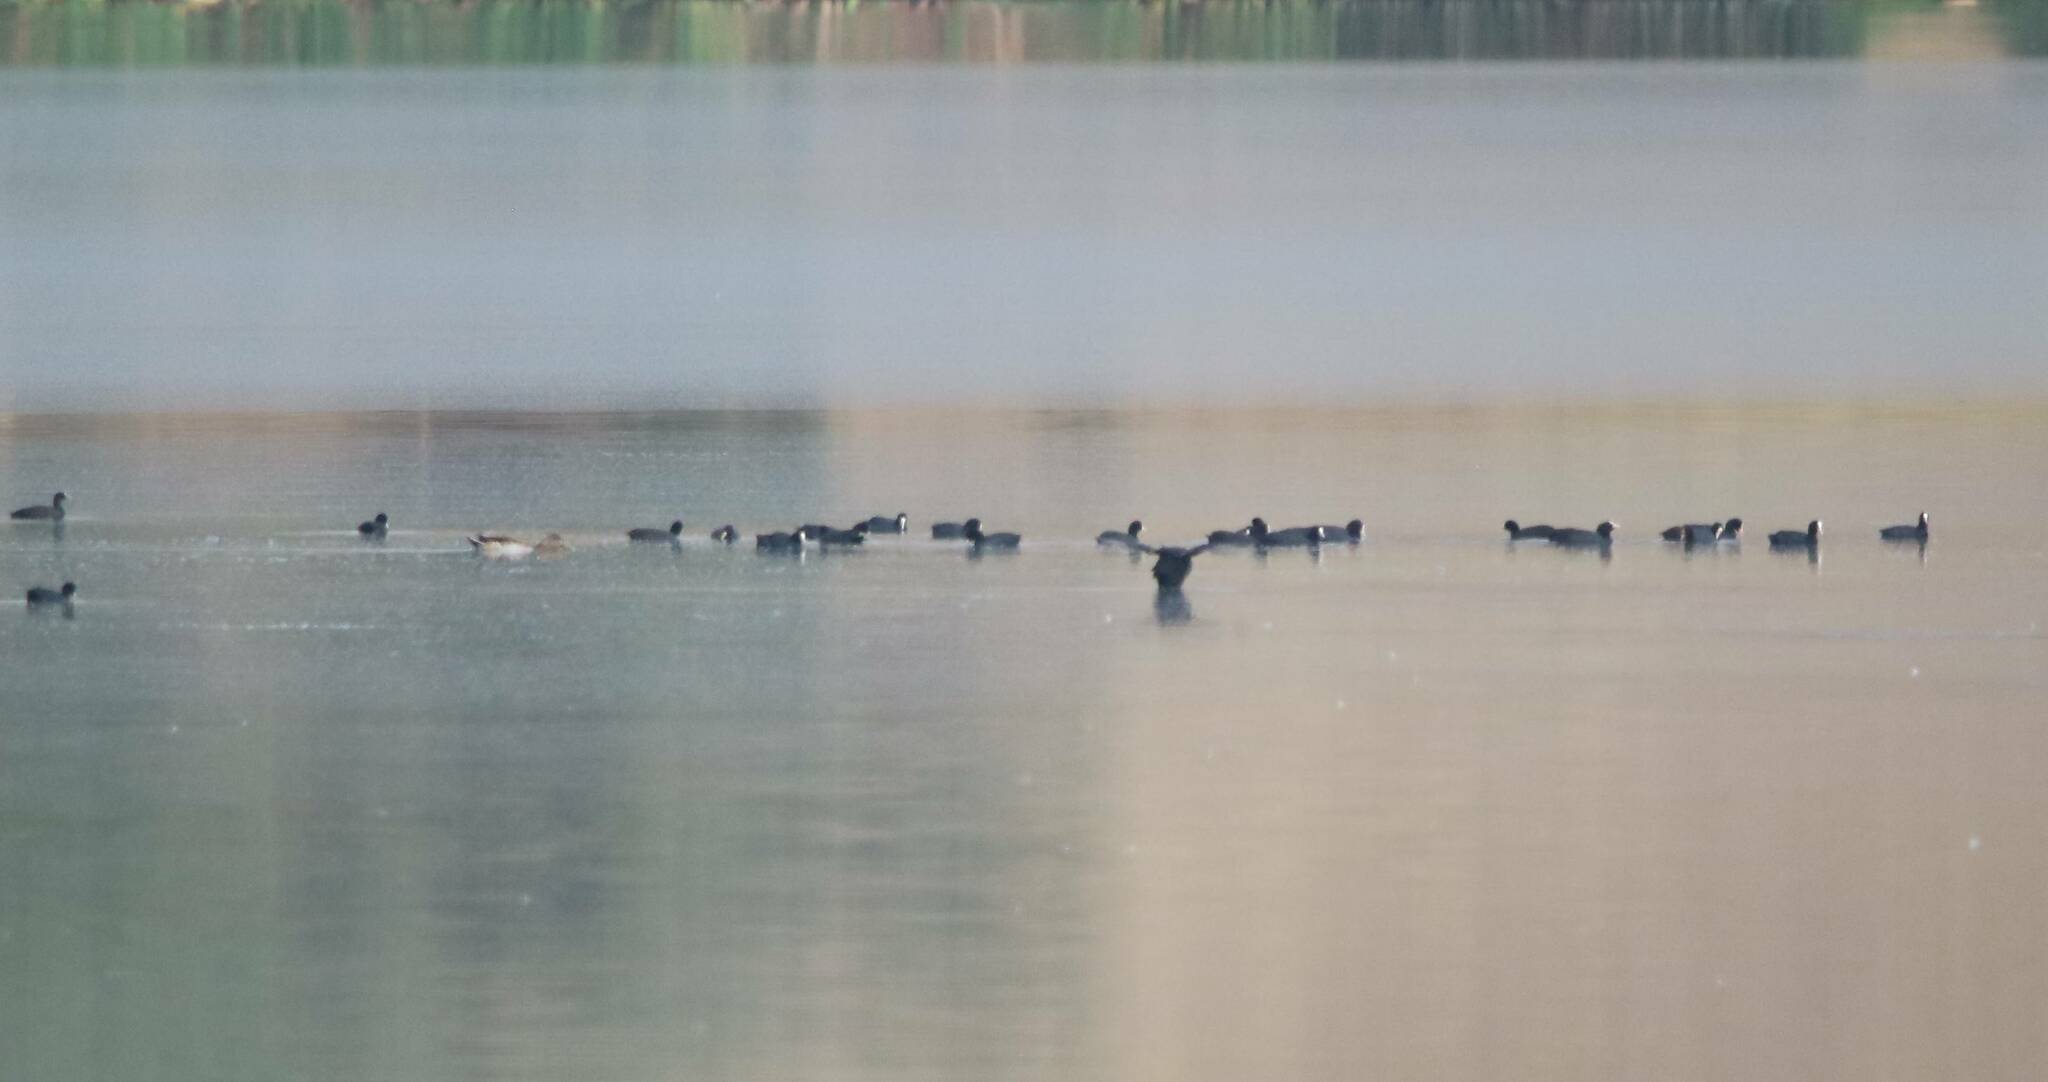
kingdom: Animalia
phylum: Chordata
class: Aves
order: Gruiformes
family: Rallidae
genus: Fulica
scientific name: Fulica atra
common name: Eurasian coot
